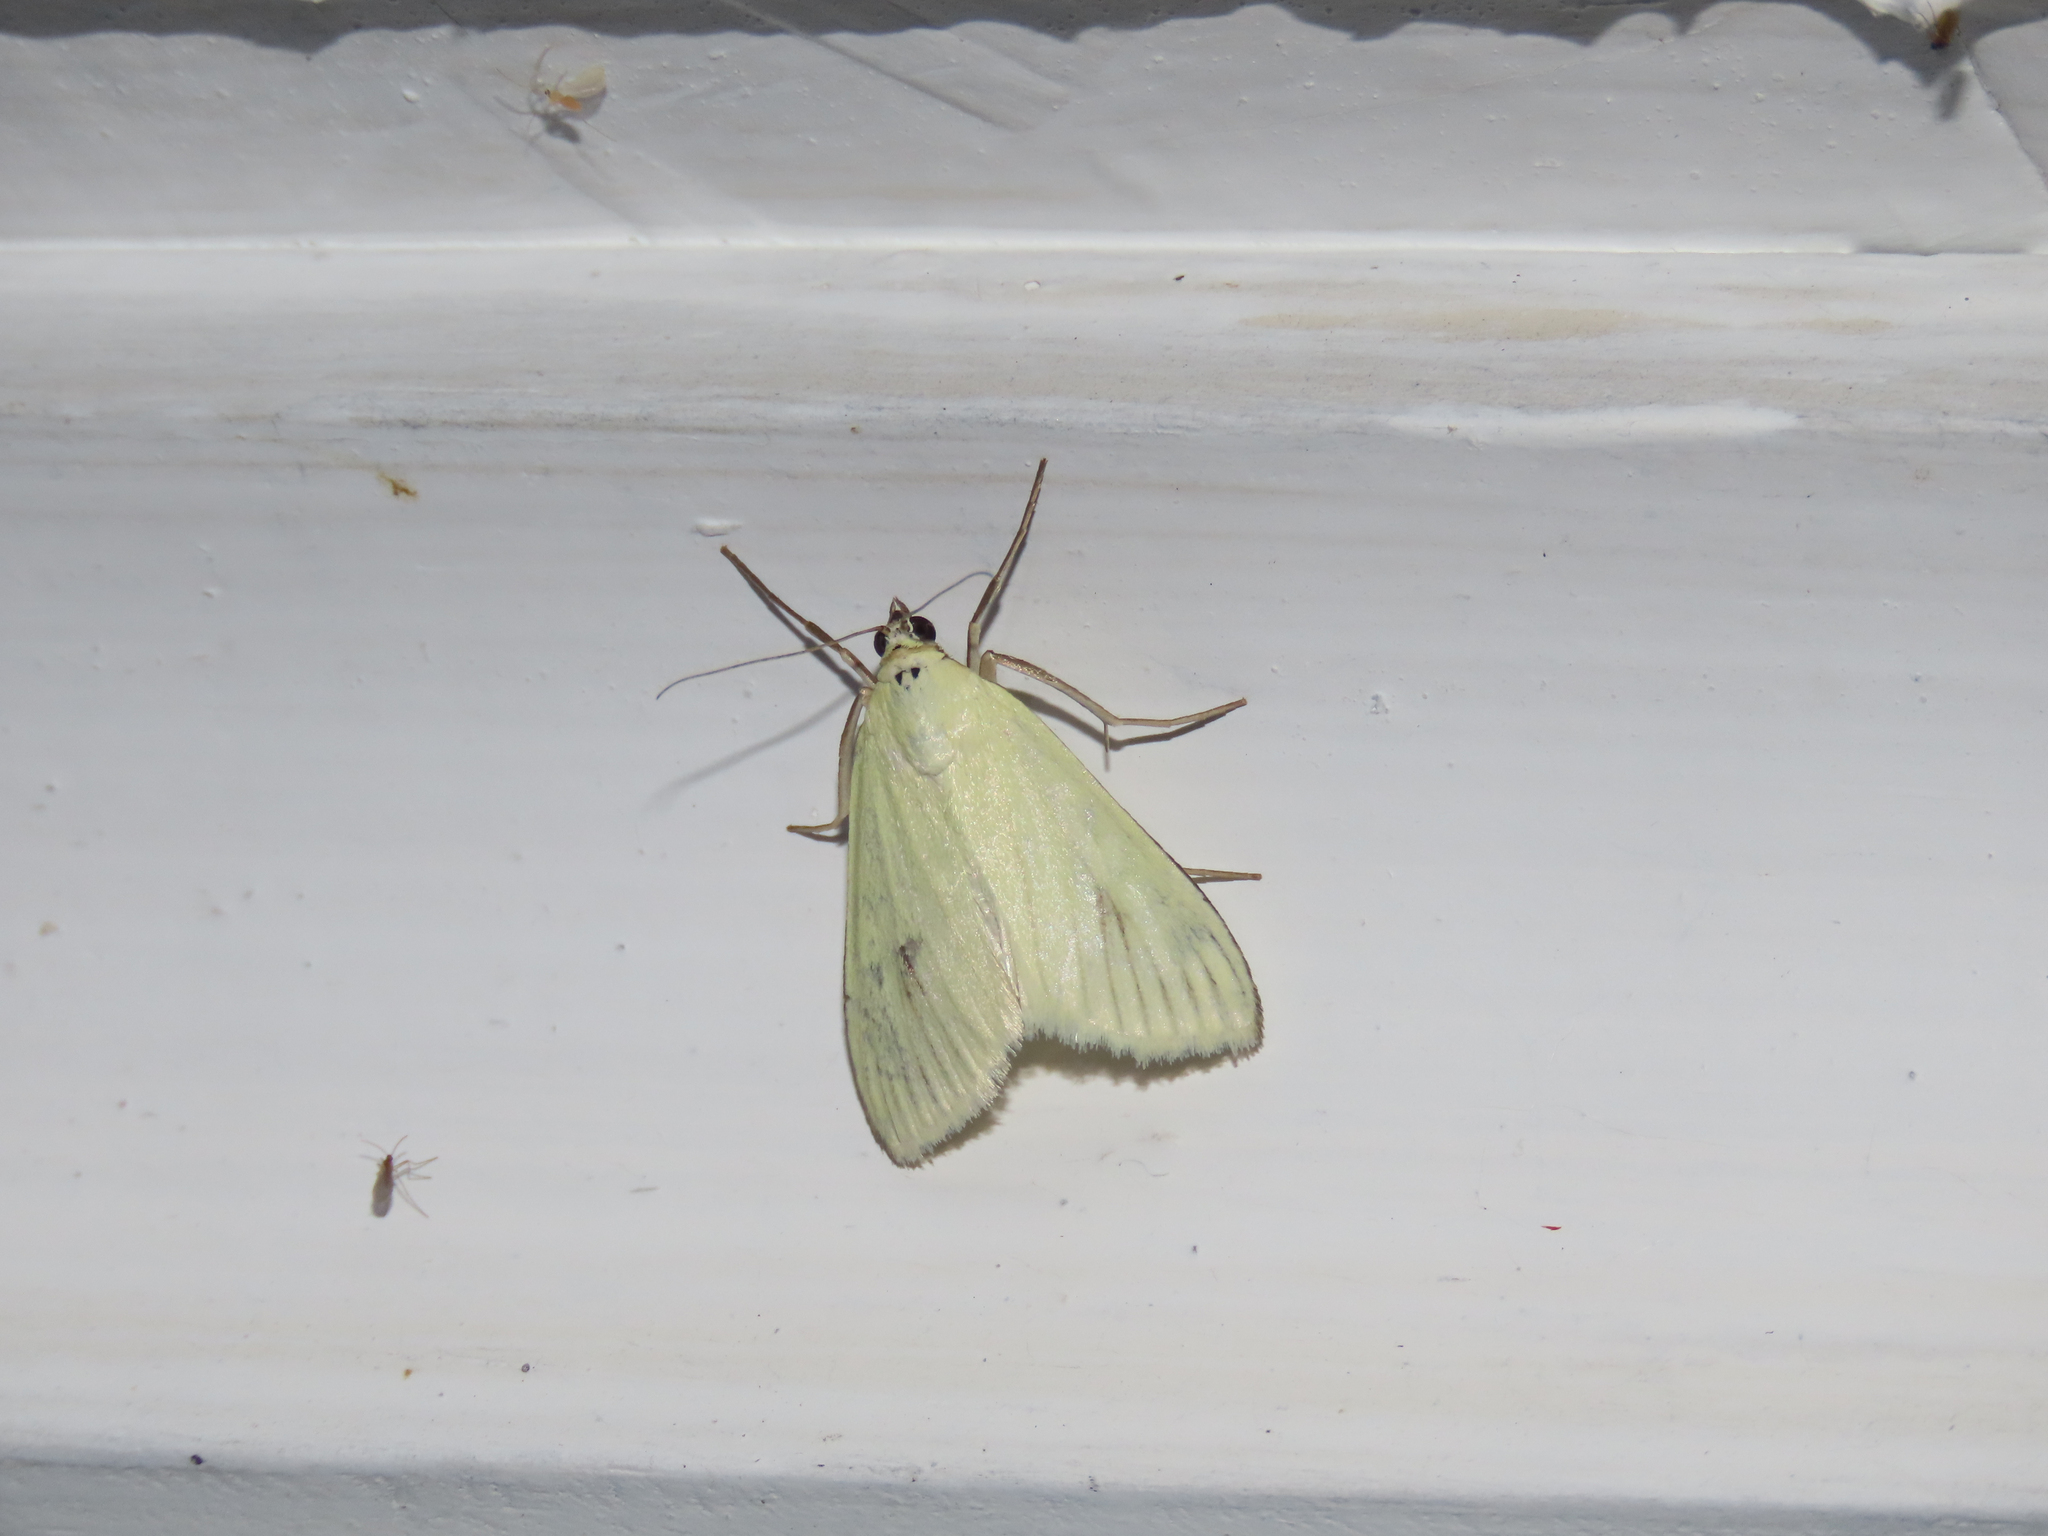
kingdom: Animalia
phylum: Arthropoda
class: Insecta
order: Lepidoptera
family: Crambidae
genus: Sitochroa
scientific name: Sitochroa palealis
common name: Greenish-yellow sitochroa moth
